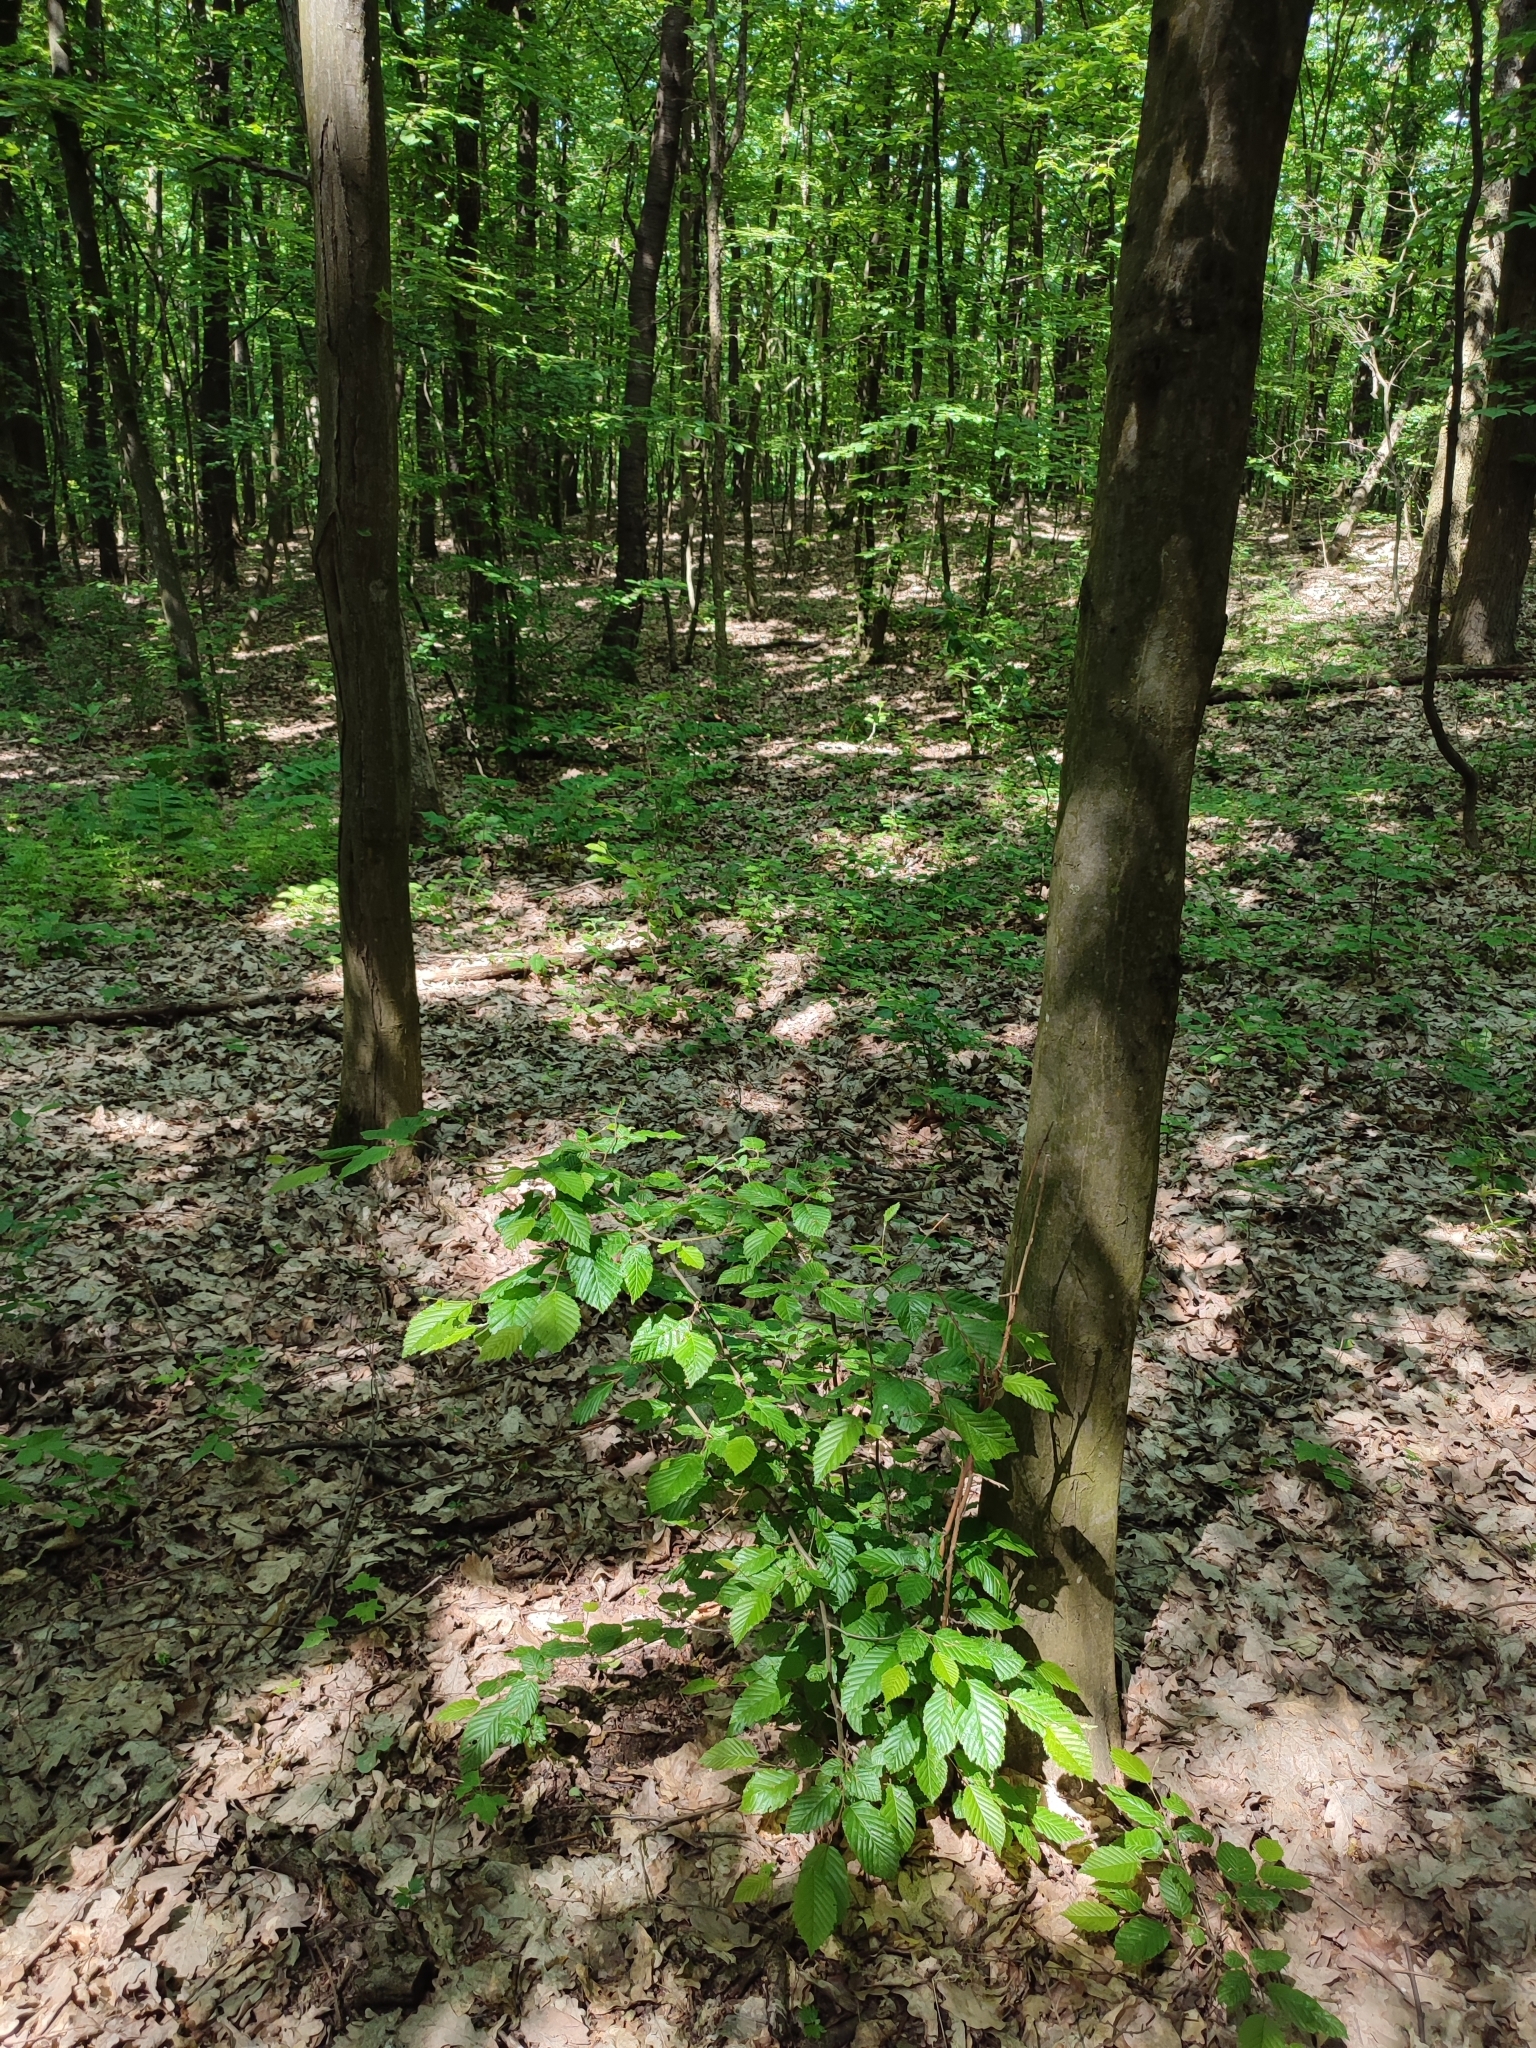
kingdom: Plantae
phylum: Tracheophyta
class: Magnoliopsida
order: Fagales
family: Betulaceae
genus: Carpinus
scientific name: Carpinus betulus
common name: Hornbeam
